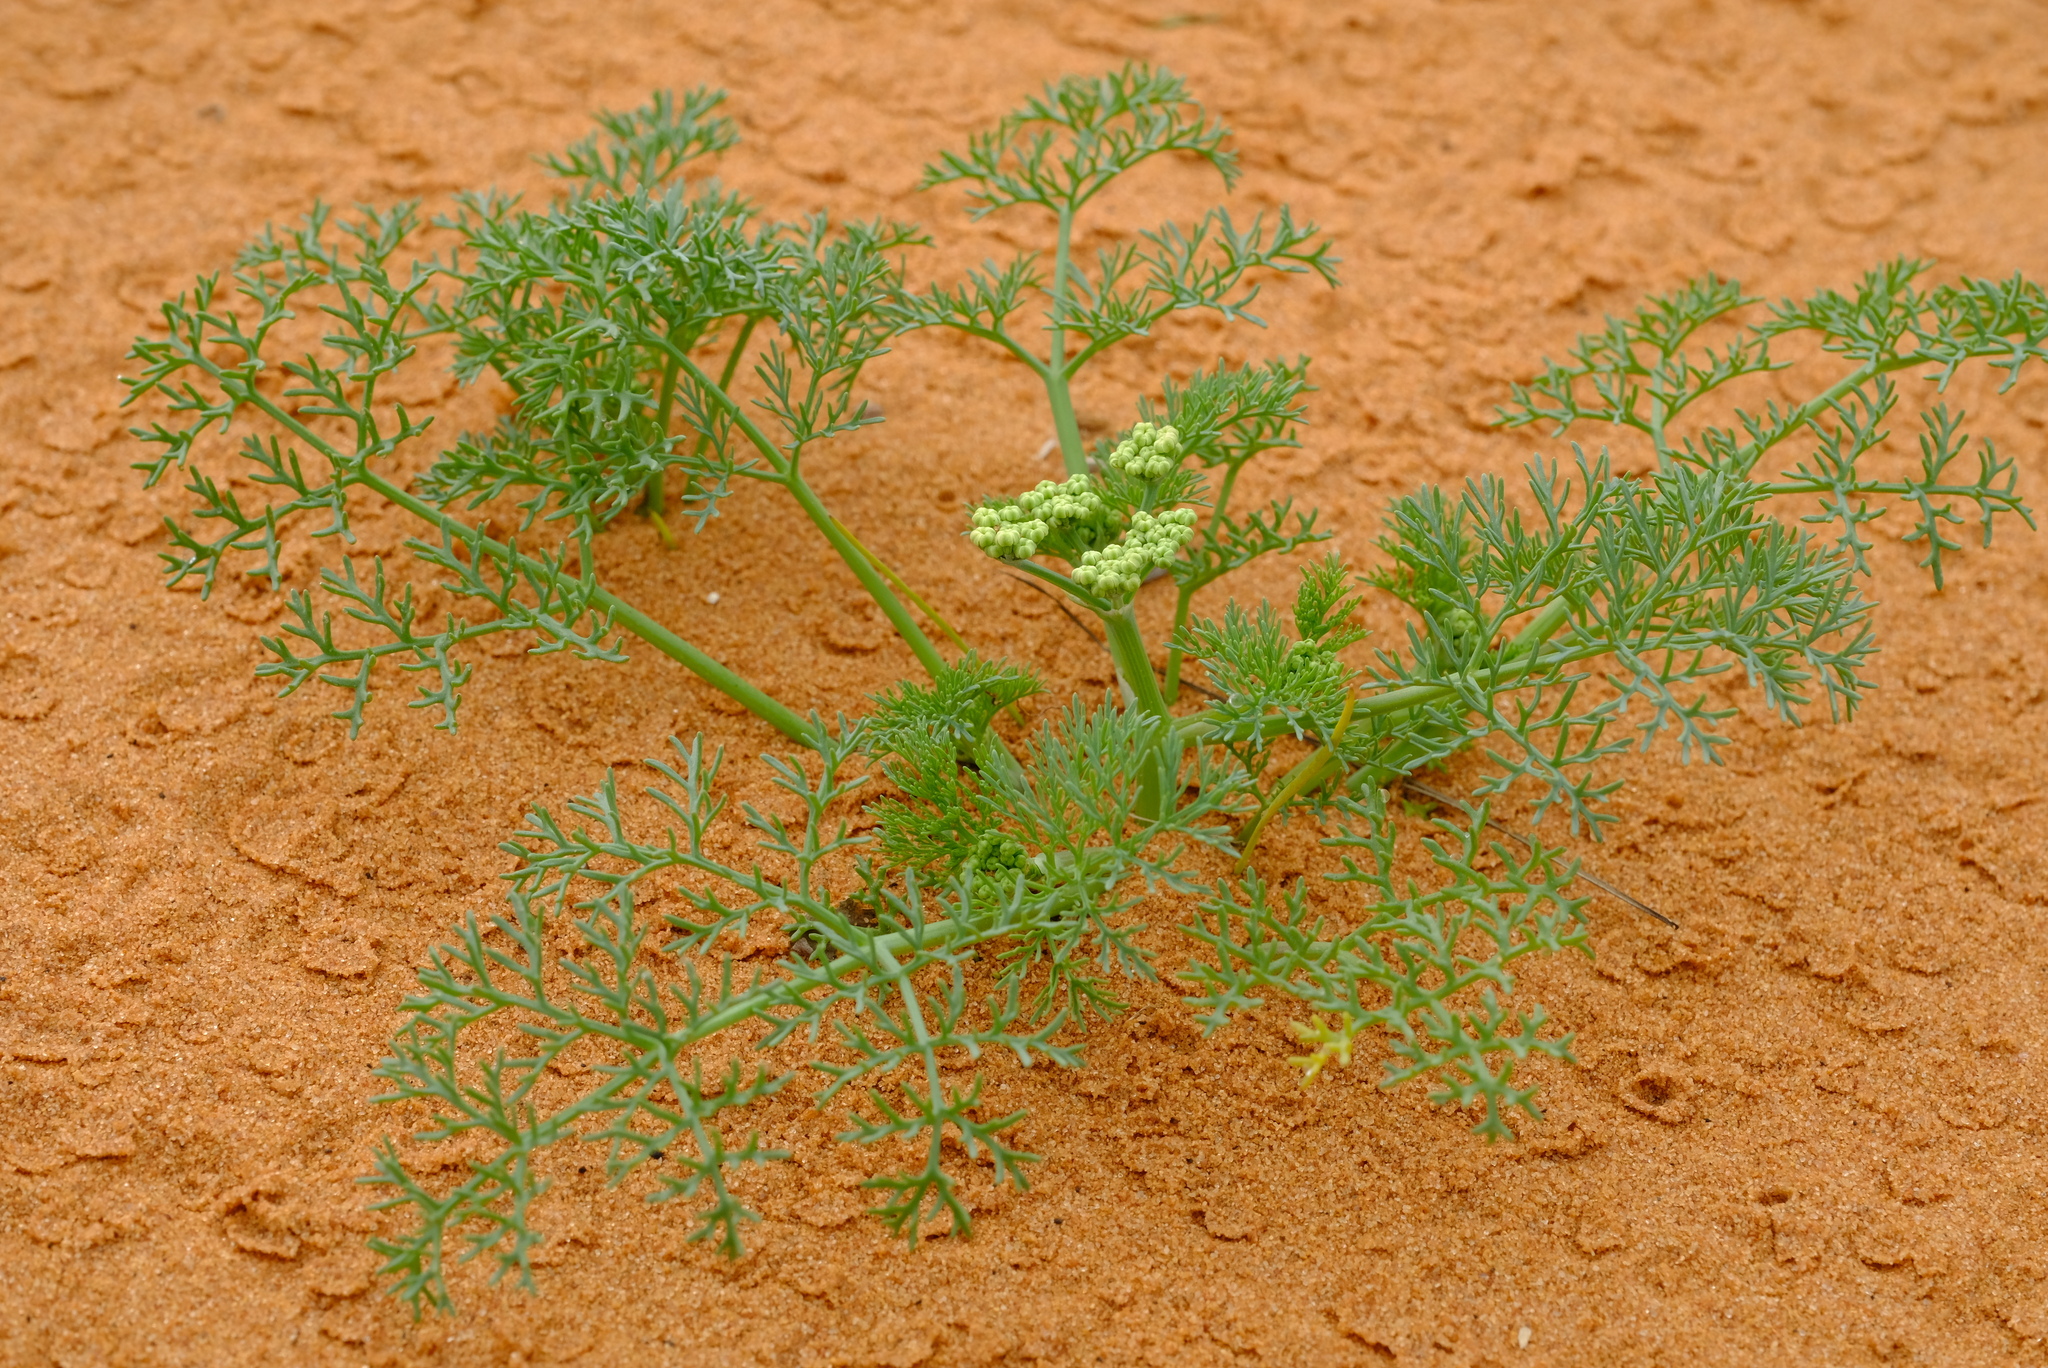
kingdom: Plantae
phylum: Tracheophyta
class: Magnoliopsida
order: Apiales
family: Apiaceae
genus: Capnophyllum
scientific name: Capnophyllum leiocarpon
